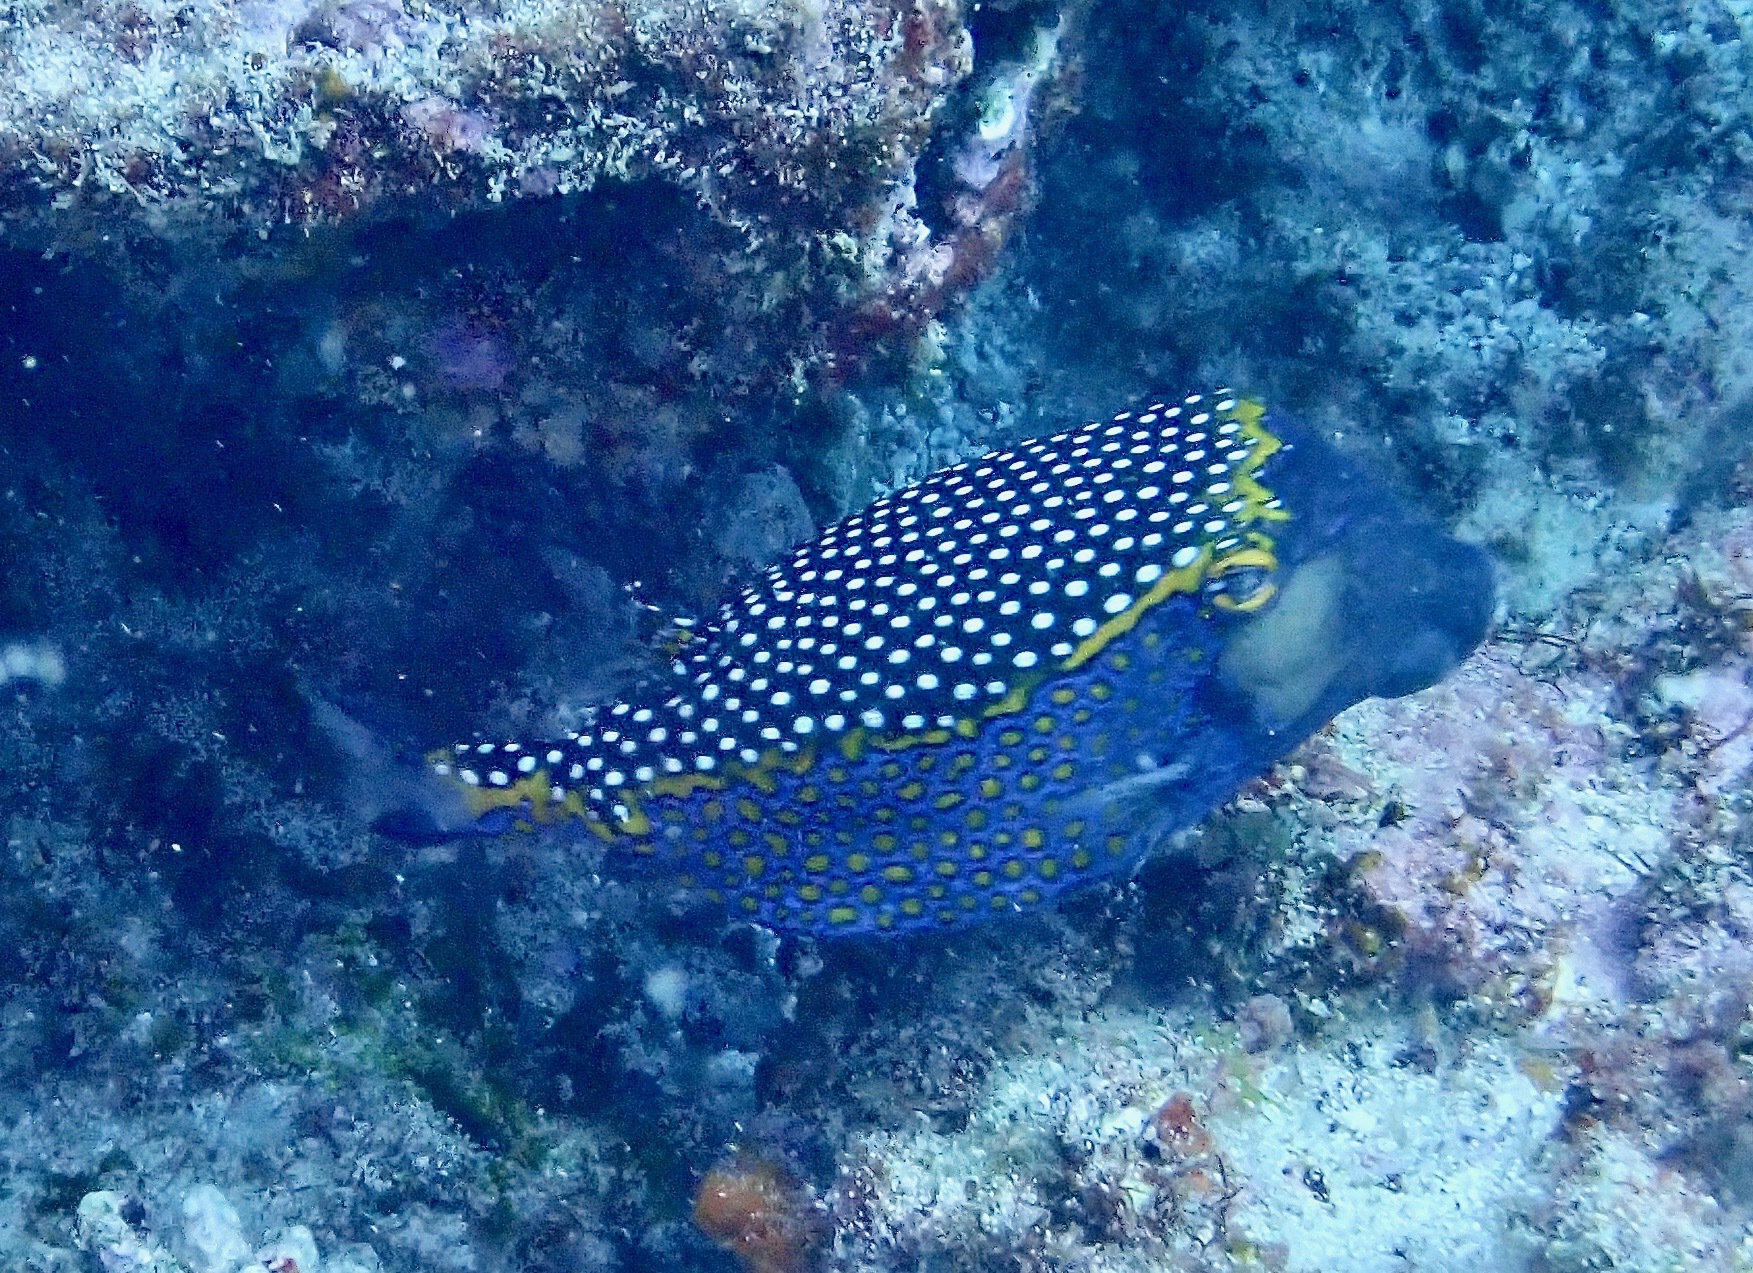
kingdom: Animalia
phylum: Chordata
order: Tetraodontiformes
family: Ostraciidae
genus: Ostracion
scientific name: Ostracion meleagris
